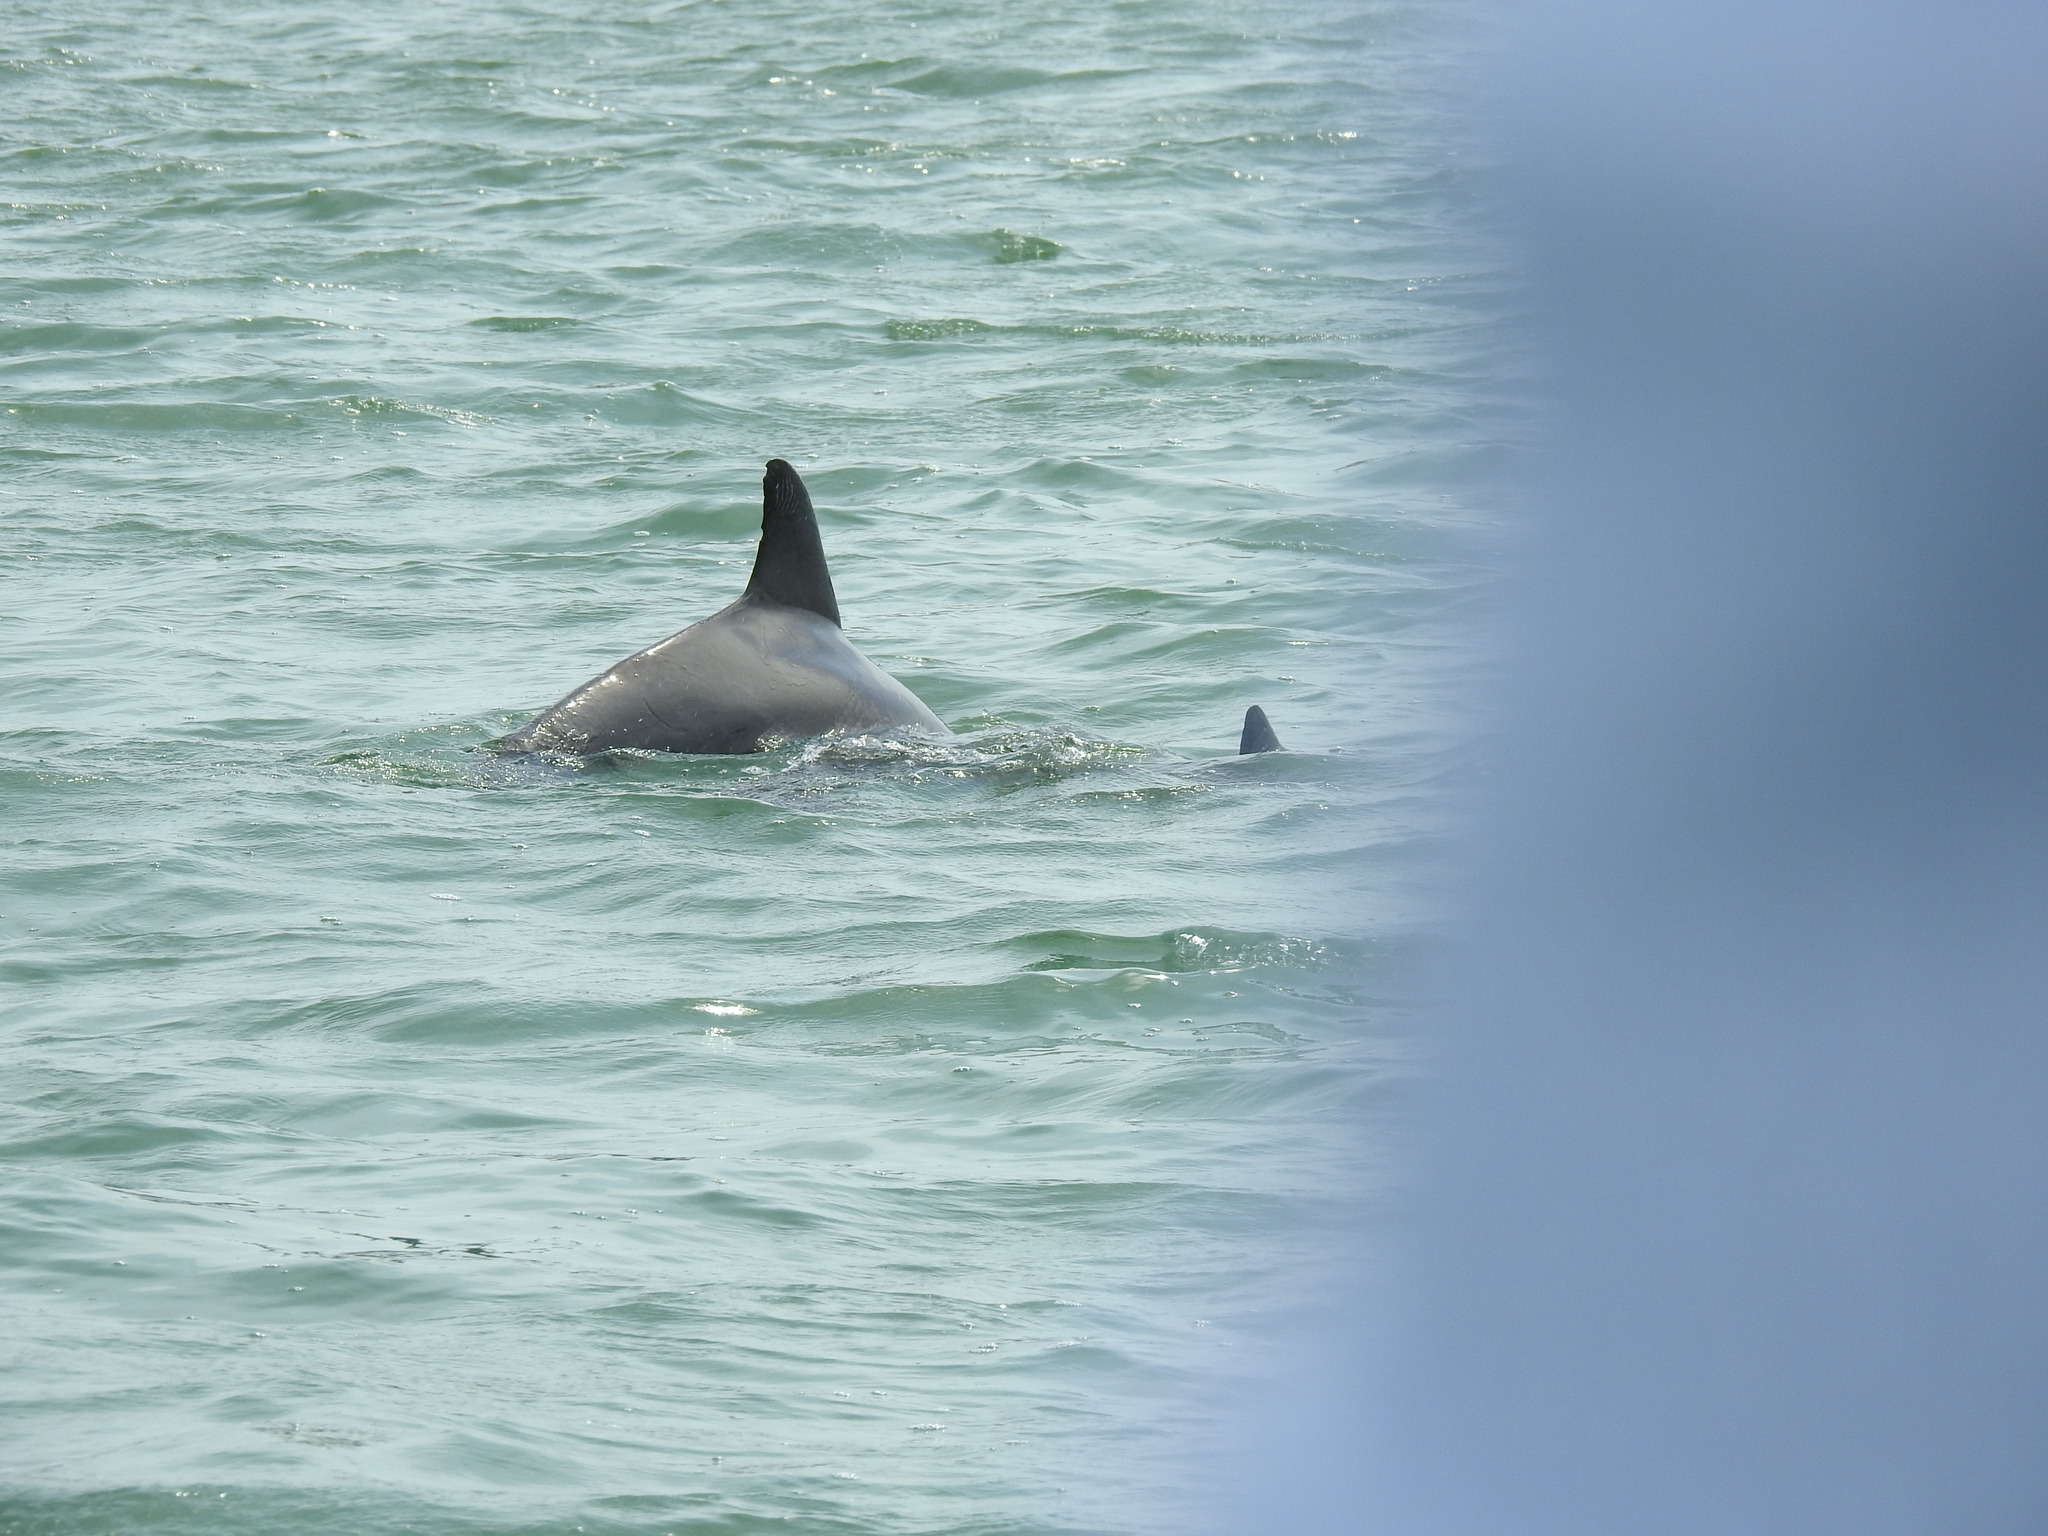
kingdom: Animalia
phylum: Chordata
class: Mammalia
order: Cetacea
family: Delphinidae
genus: Tursiops
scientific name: Tursiops truncatus
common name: Bottlenose dolphin
